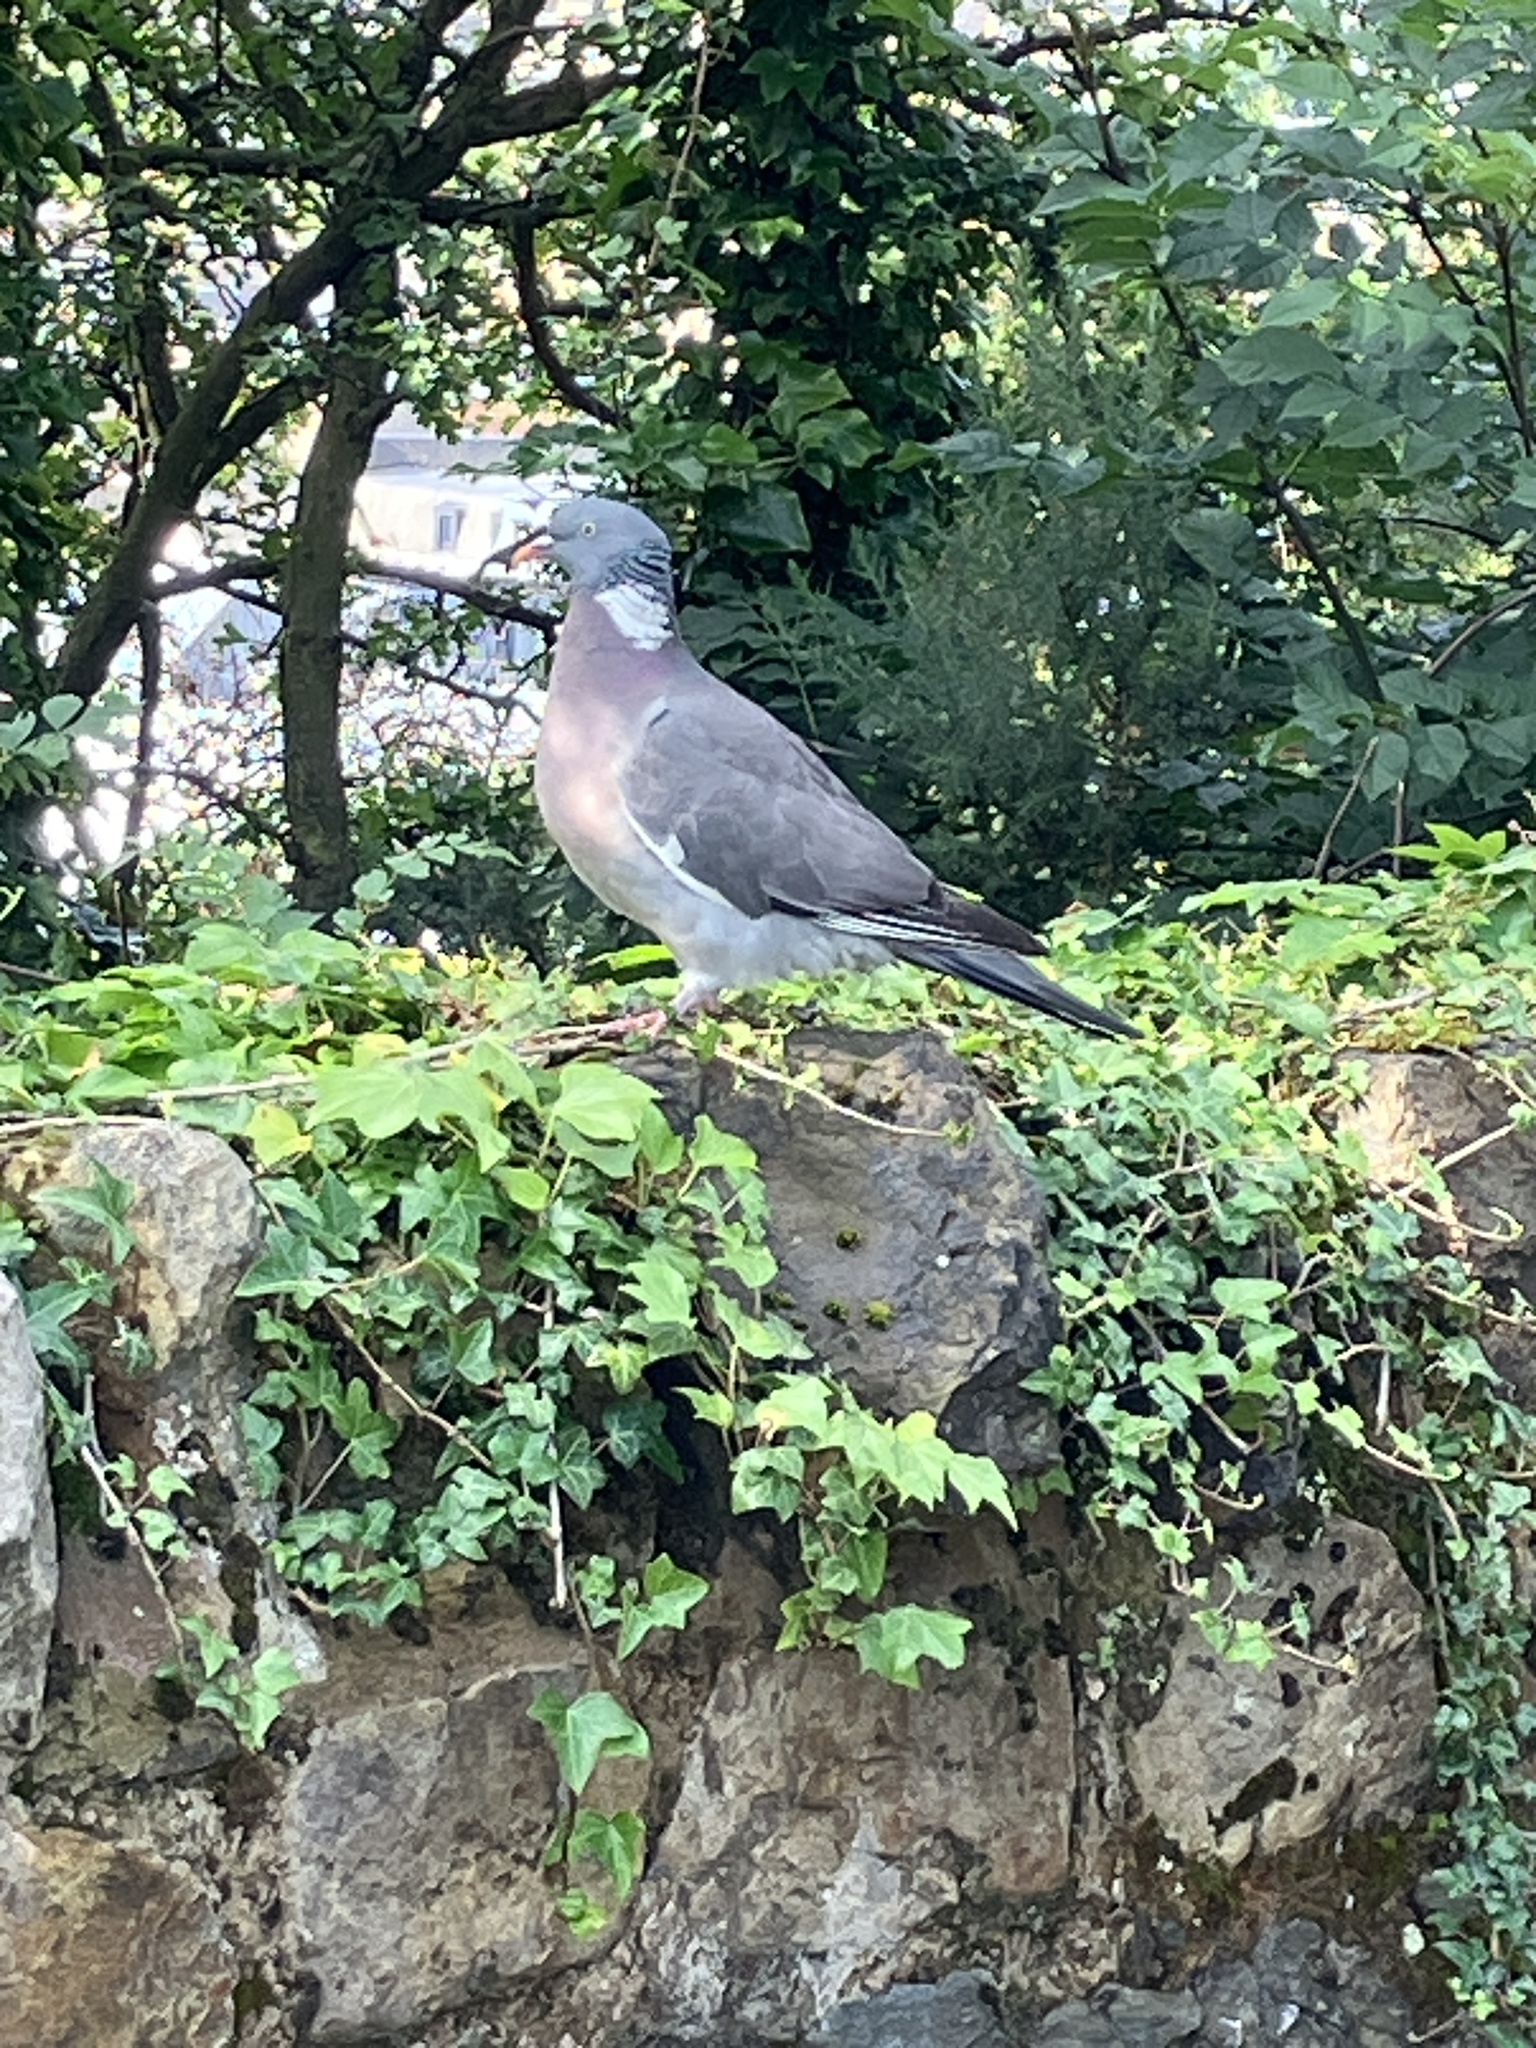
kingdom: Animalia
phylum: Chordata
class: Aves
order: Columbiformes
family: Columbidae
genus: Columba
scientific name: Columba palumbus
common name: Common wood pigeon
